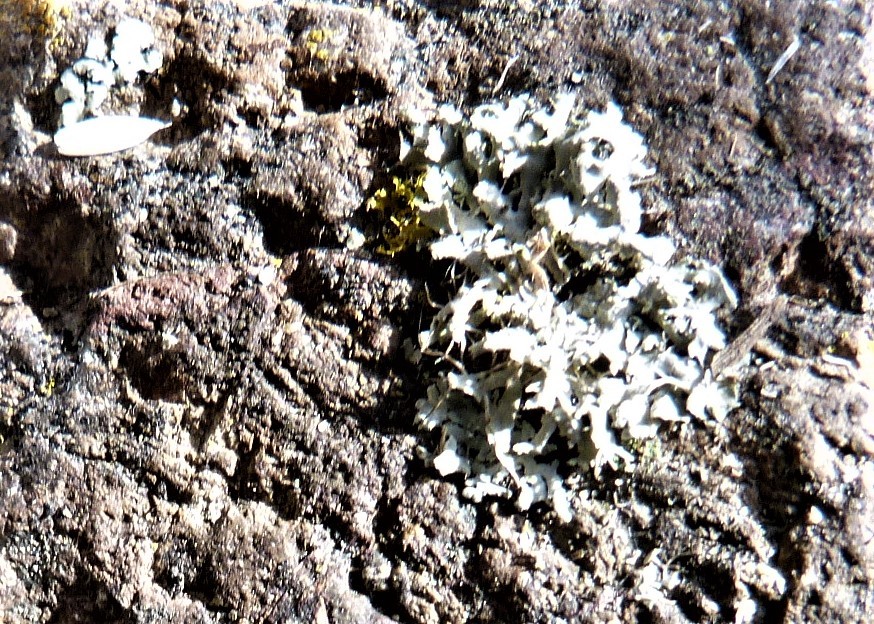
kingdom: Fungi
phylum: Ascomycota
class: Lecanoromycetes
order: Caliciales
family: Physciaceae
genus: Physcia
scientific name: Physcia adscendens
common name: Hooded rosette lichen
